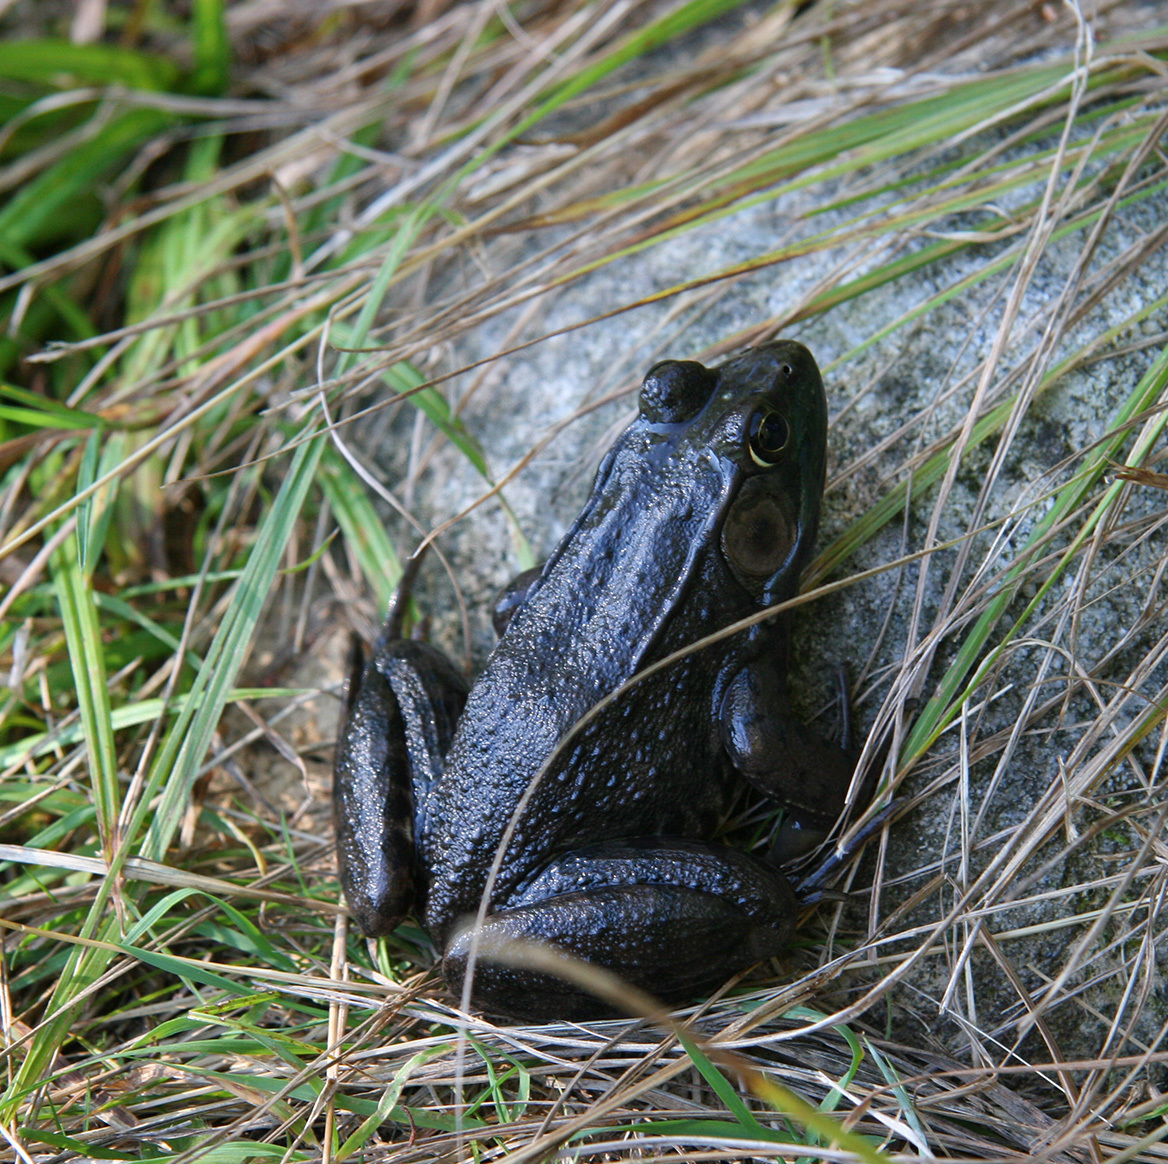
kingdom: Animalia
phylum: Chordata
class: Amphibia
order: Anura
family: Ranidae
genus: Lithobates
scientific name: Lithobates clamitans
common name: Green frog
